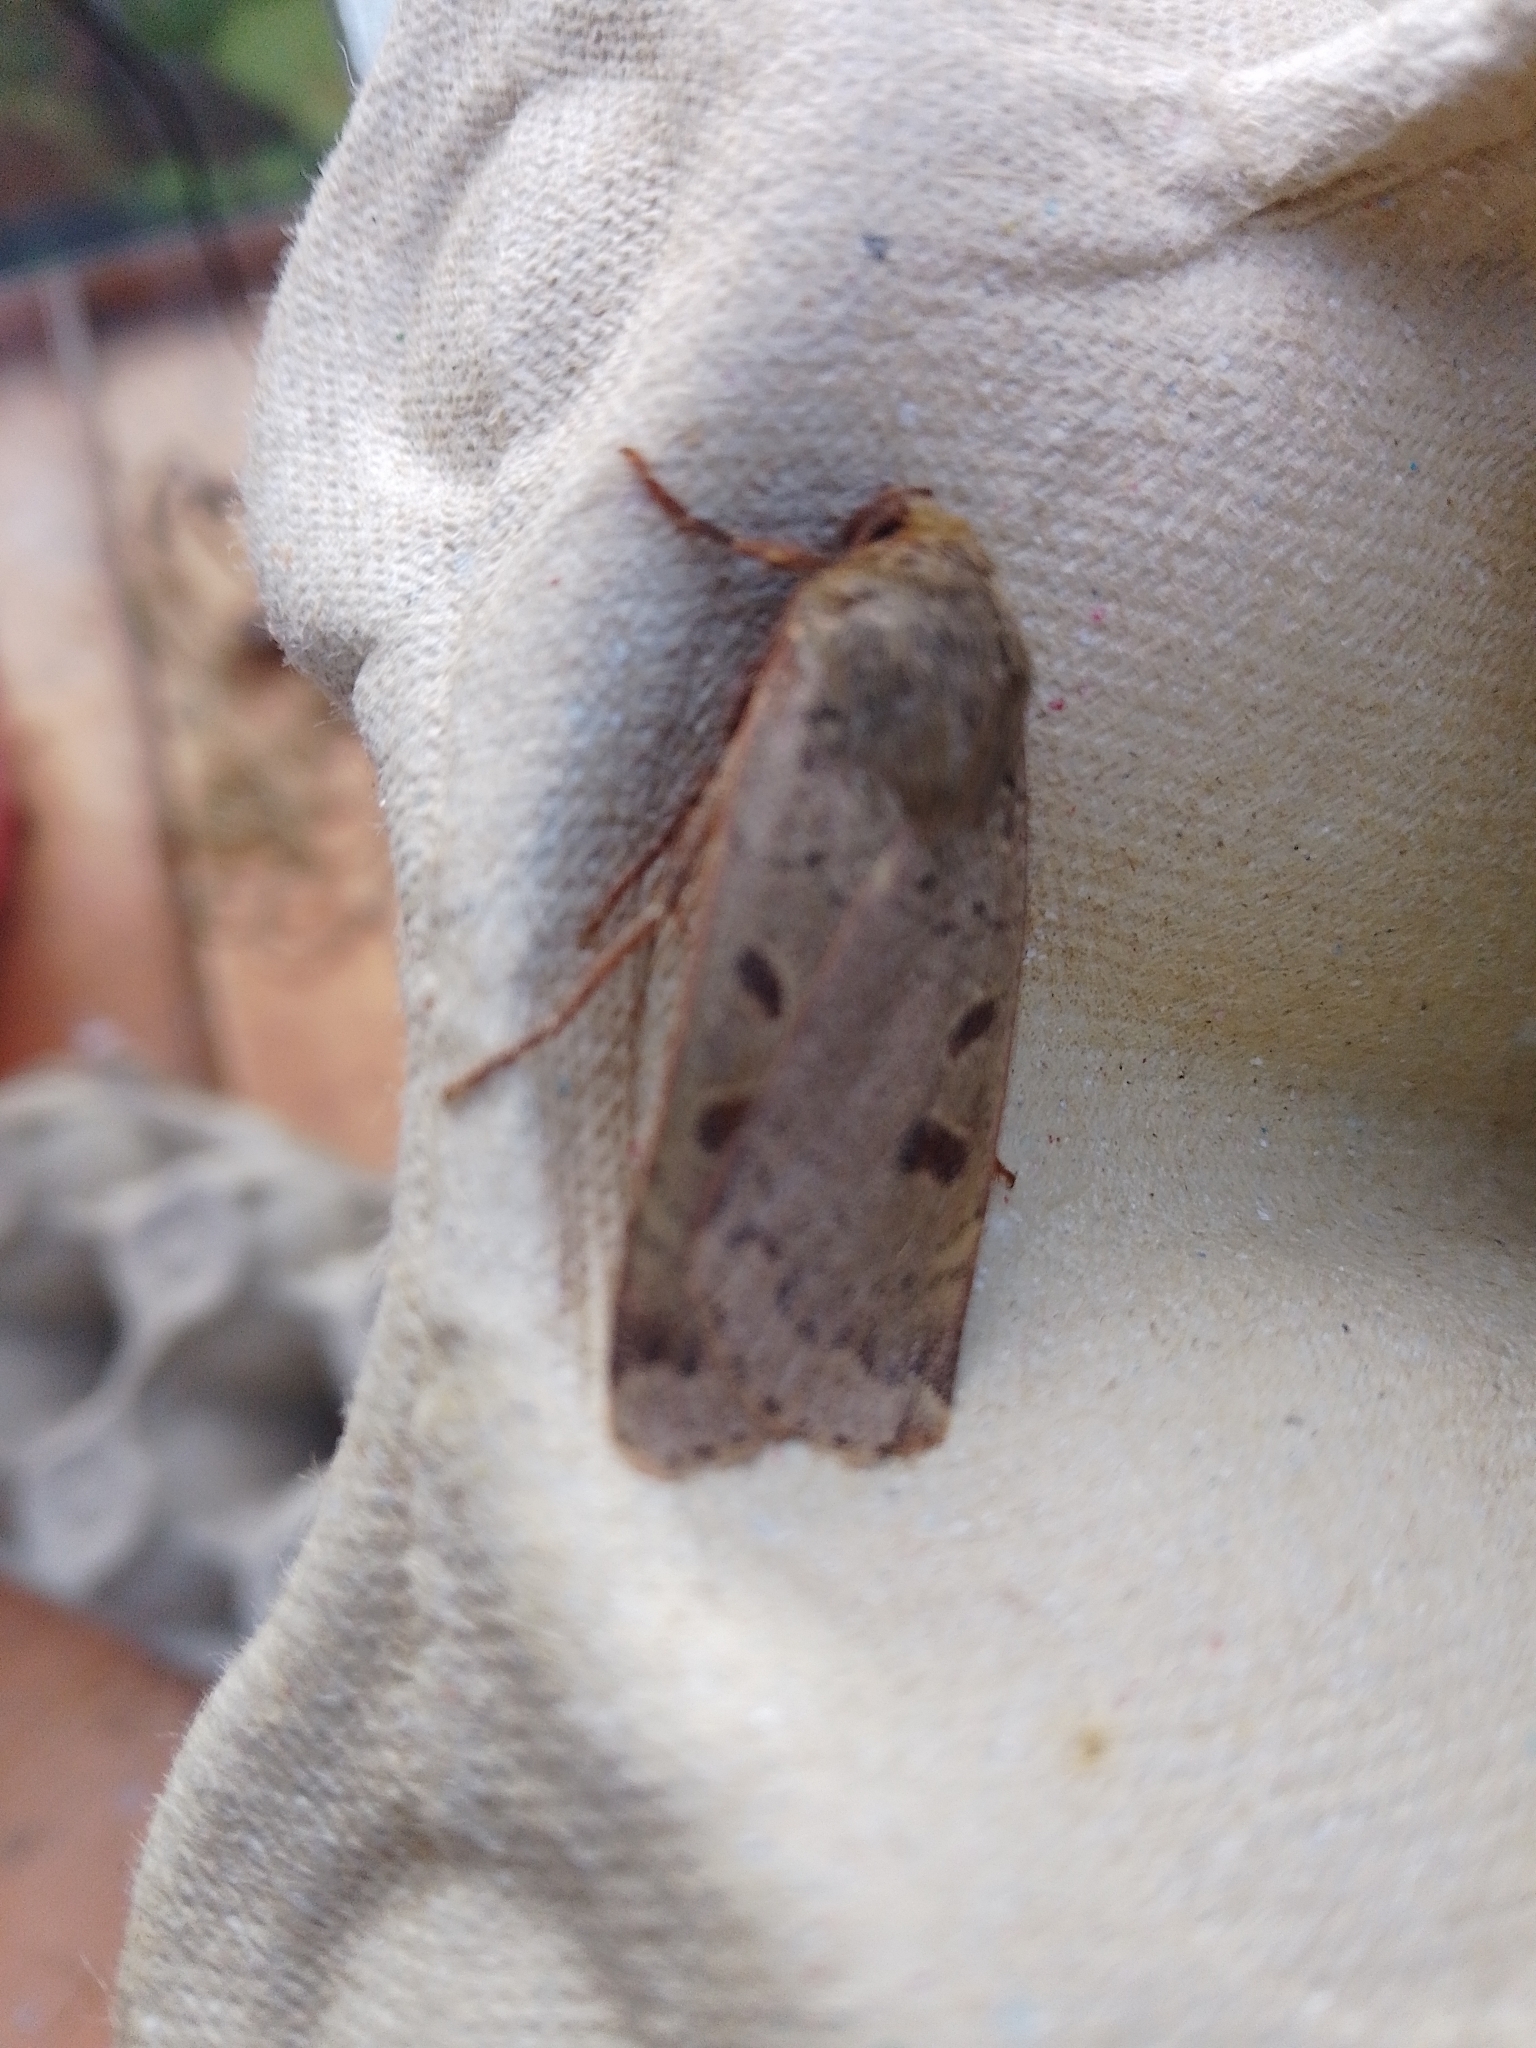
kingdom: Animalia
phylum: Arthropoda
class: Insecta
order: Lepidoptera
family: Noctuidae
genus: Noctua
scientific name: Noctua comes
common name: Lesser yellow underwing
